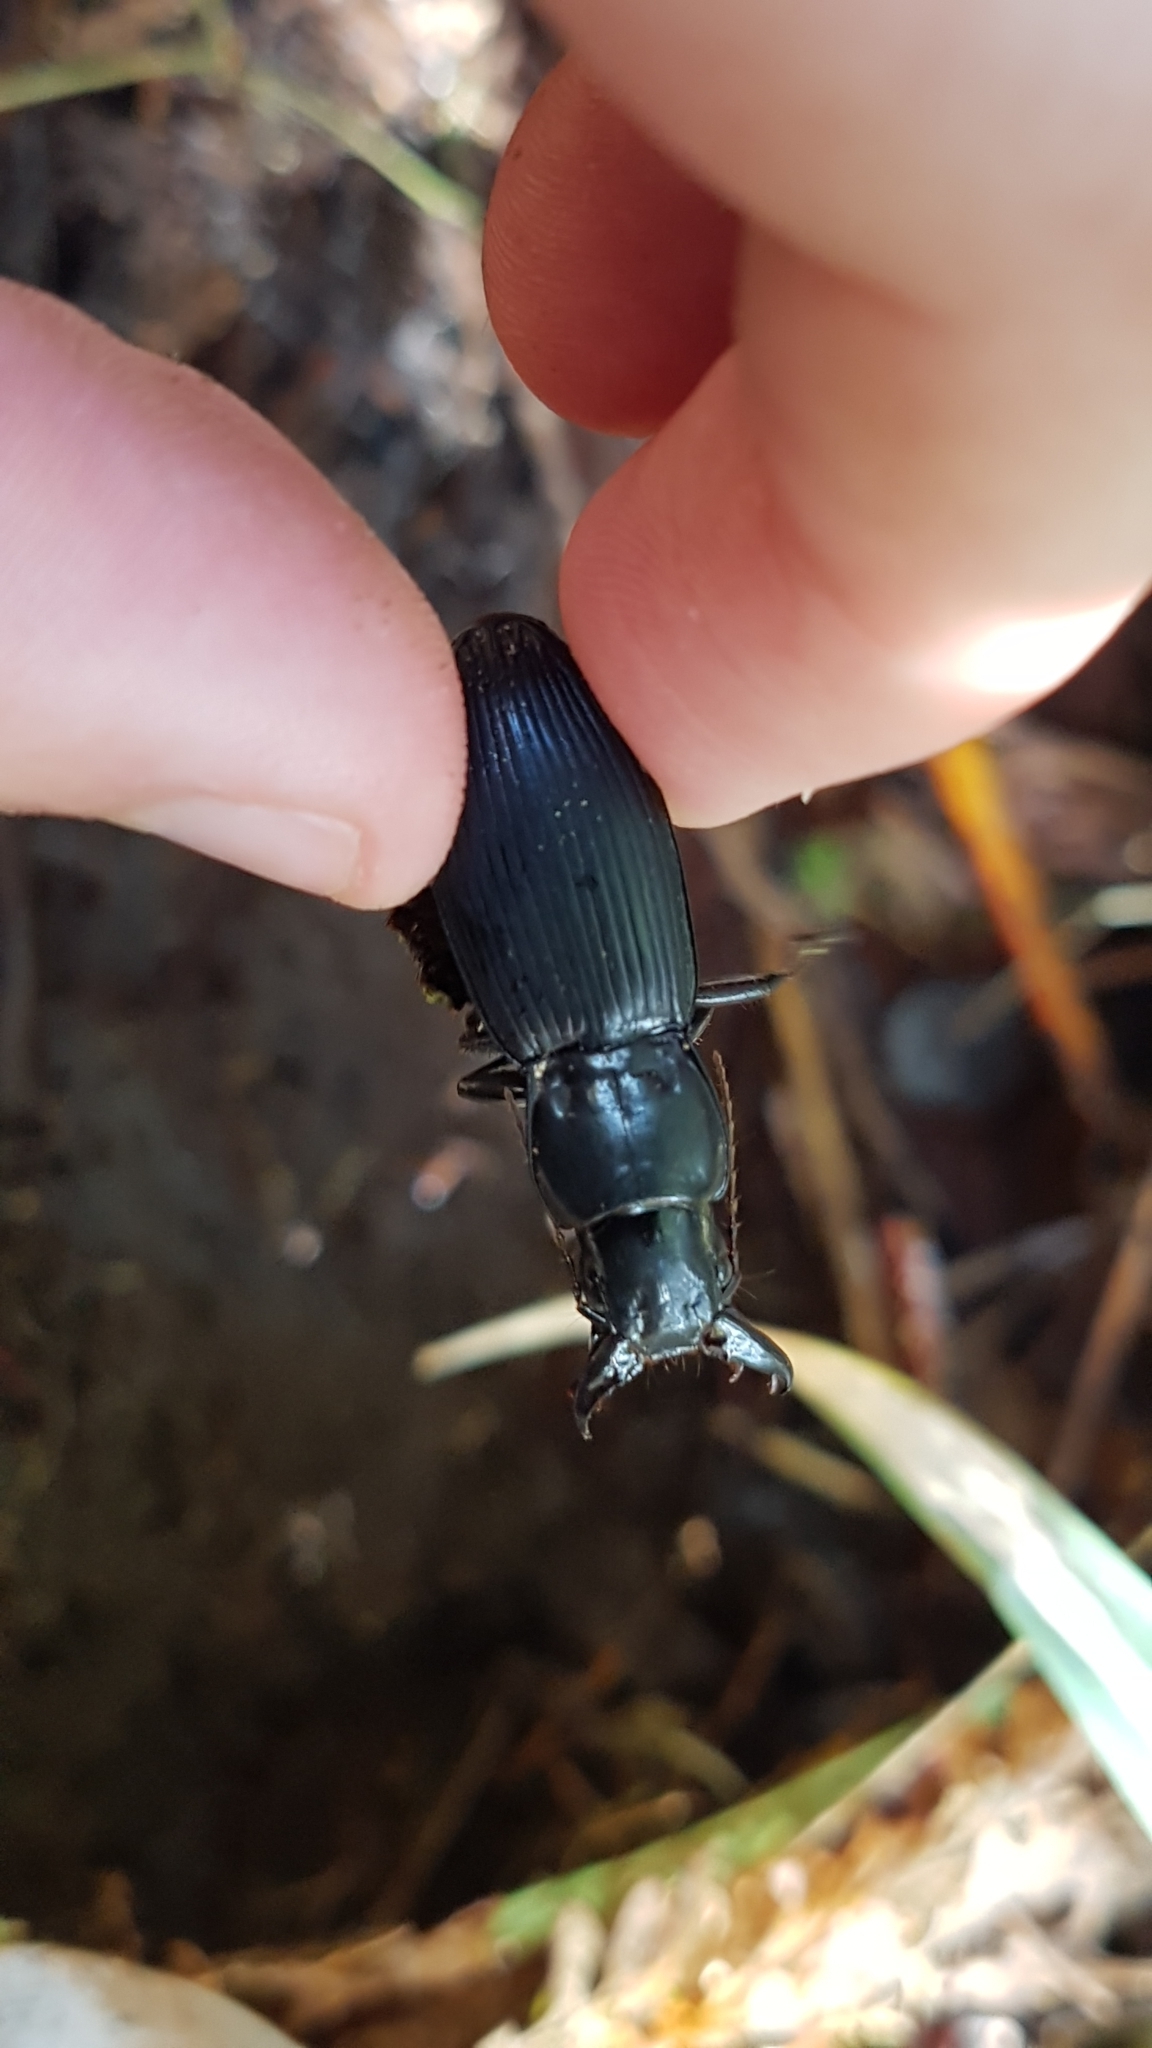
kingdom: Animalia
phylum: Arthropoda
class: Insecta
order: Coleoptera
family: Carabidae
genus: Plocamostethus
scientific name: Plocamostethus planiusculus
